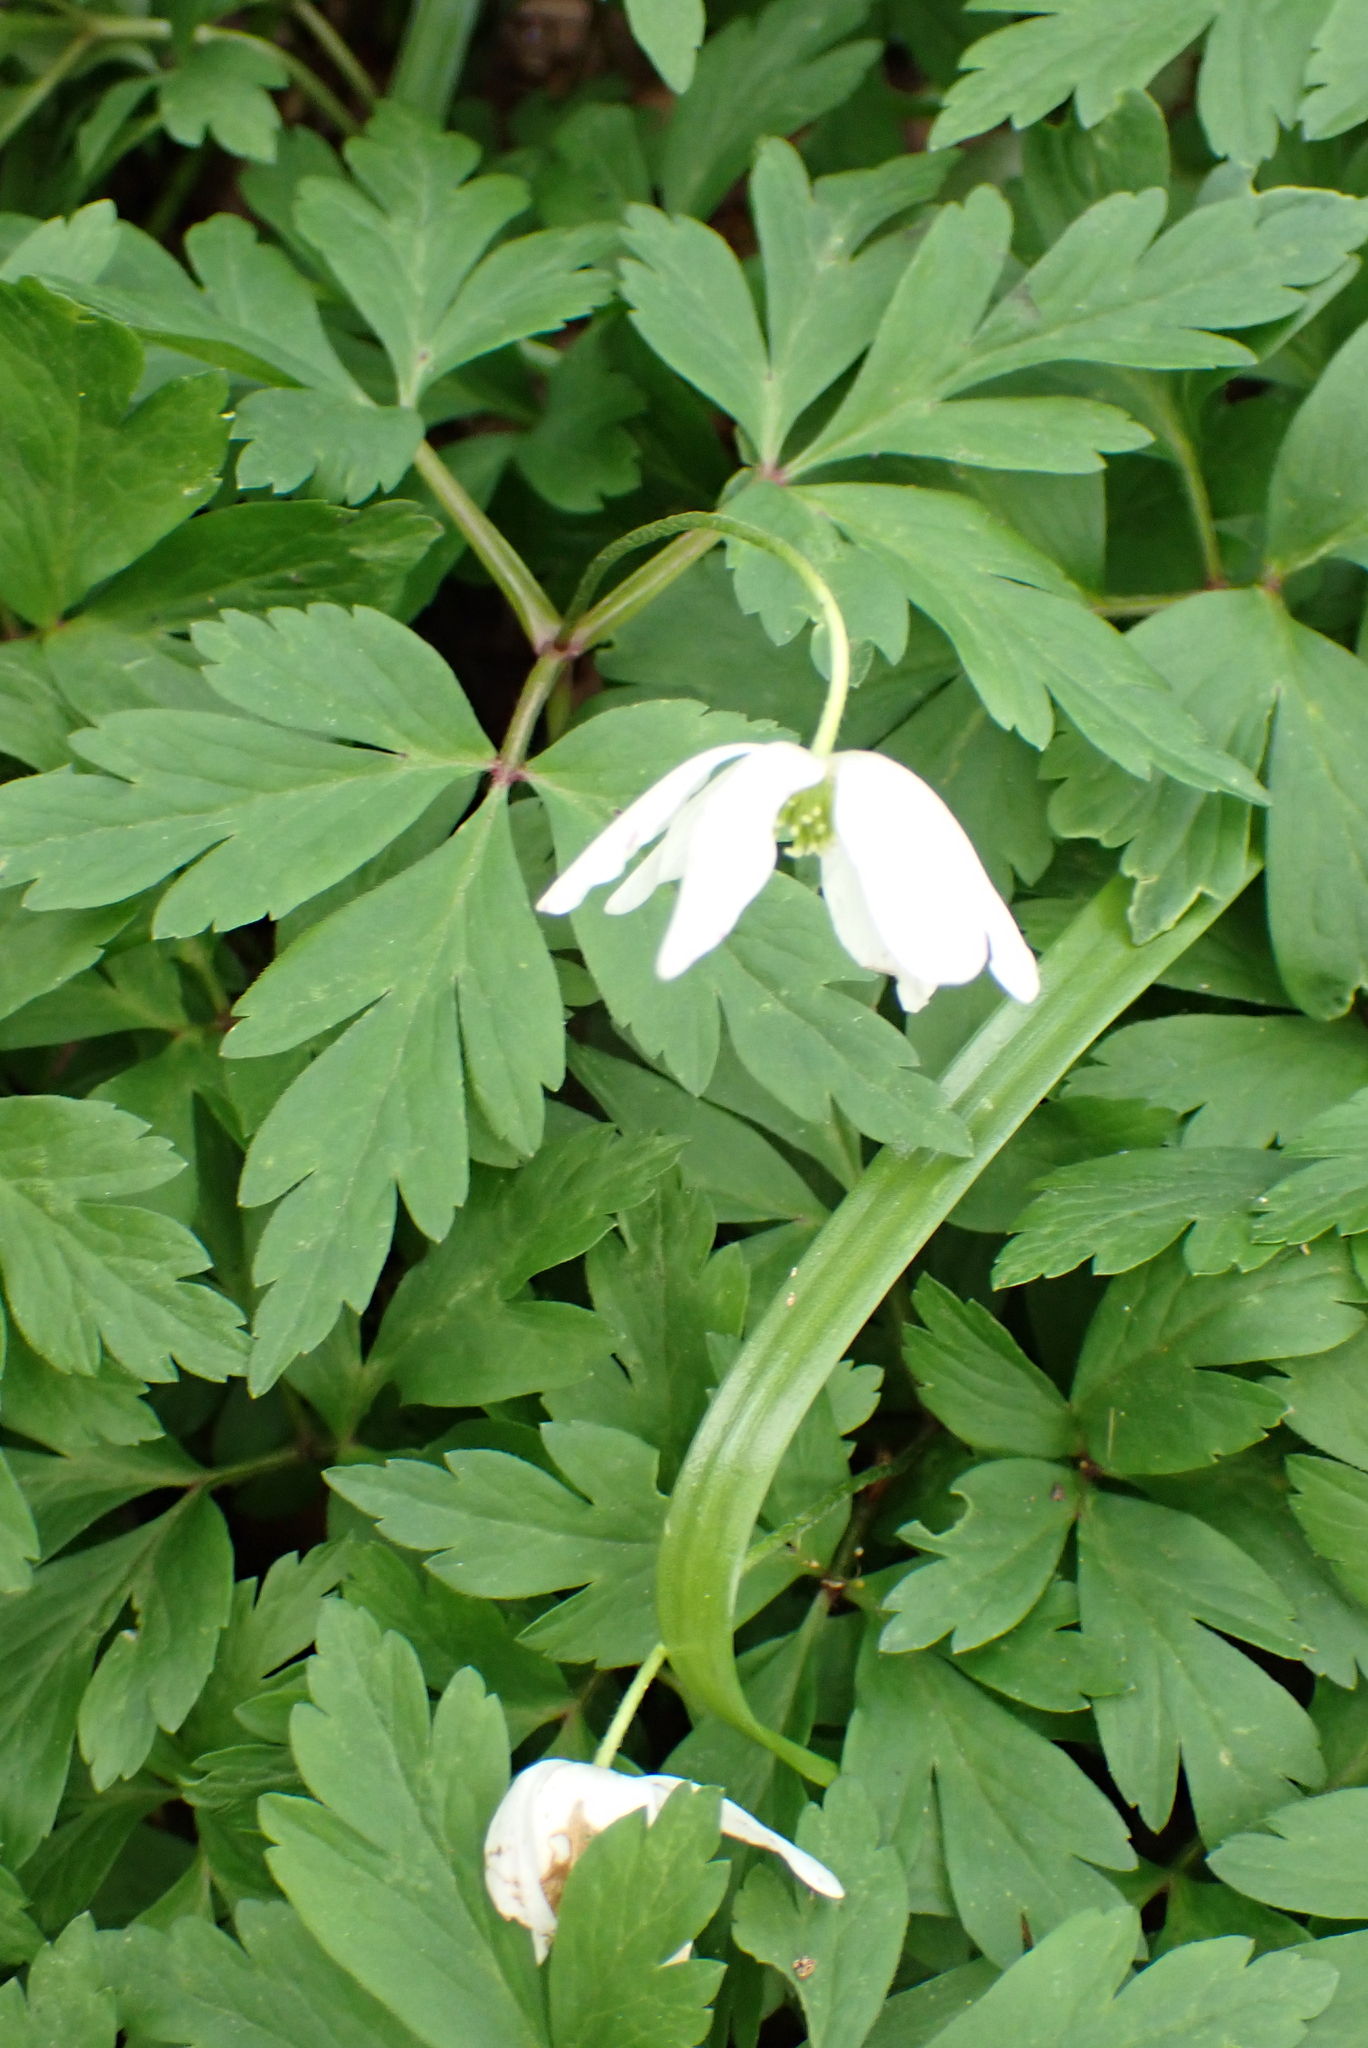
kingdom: Plantae
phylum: Tracheophyta
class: Magnoliopsida
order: Ranunculales
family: Ranunculaceae
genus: Anemone
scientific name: Anemone nemorosa
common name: Wood anemone
